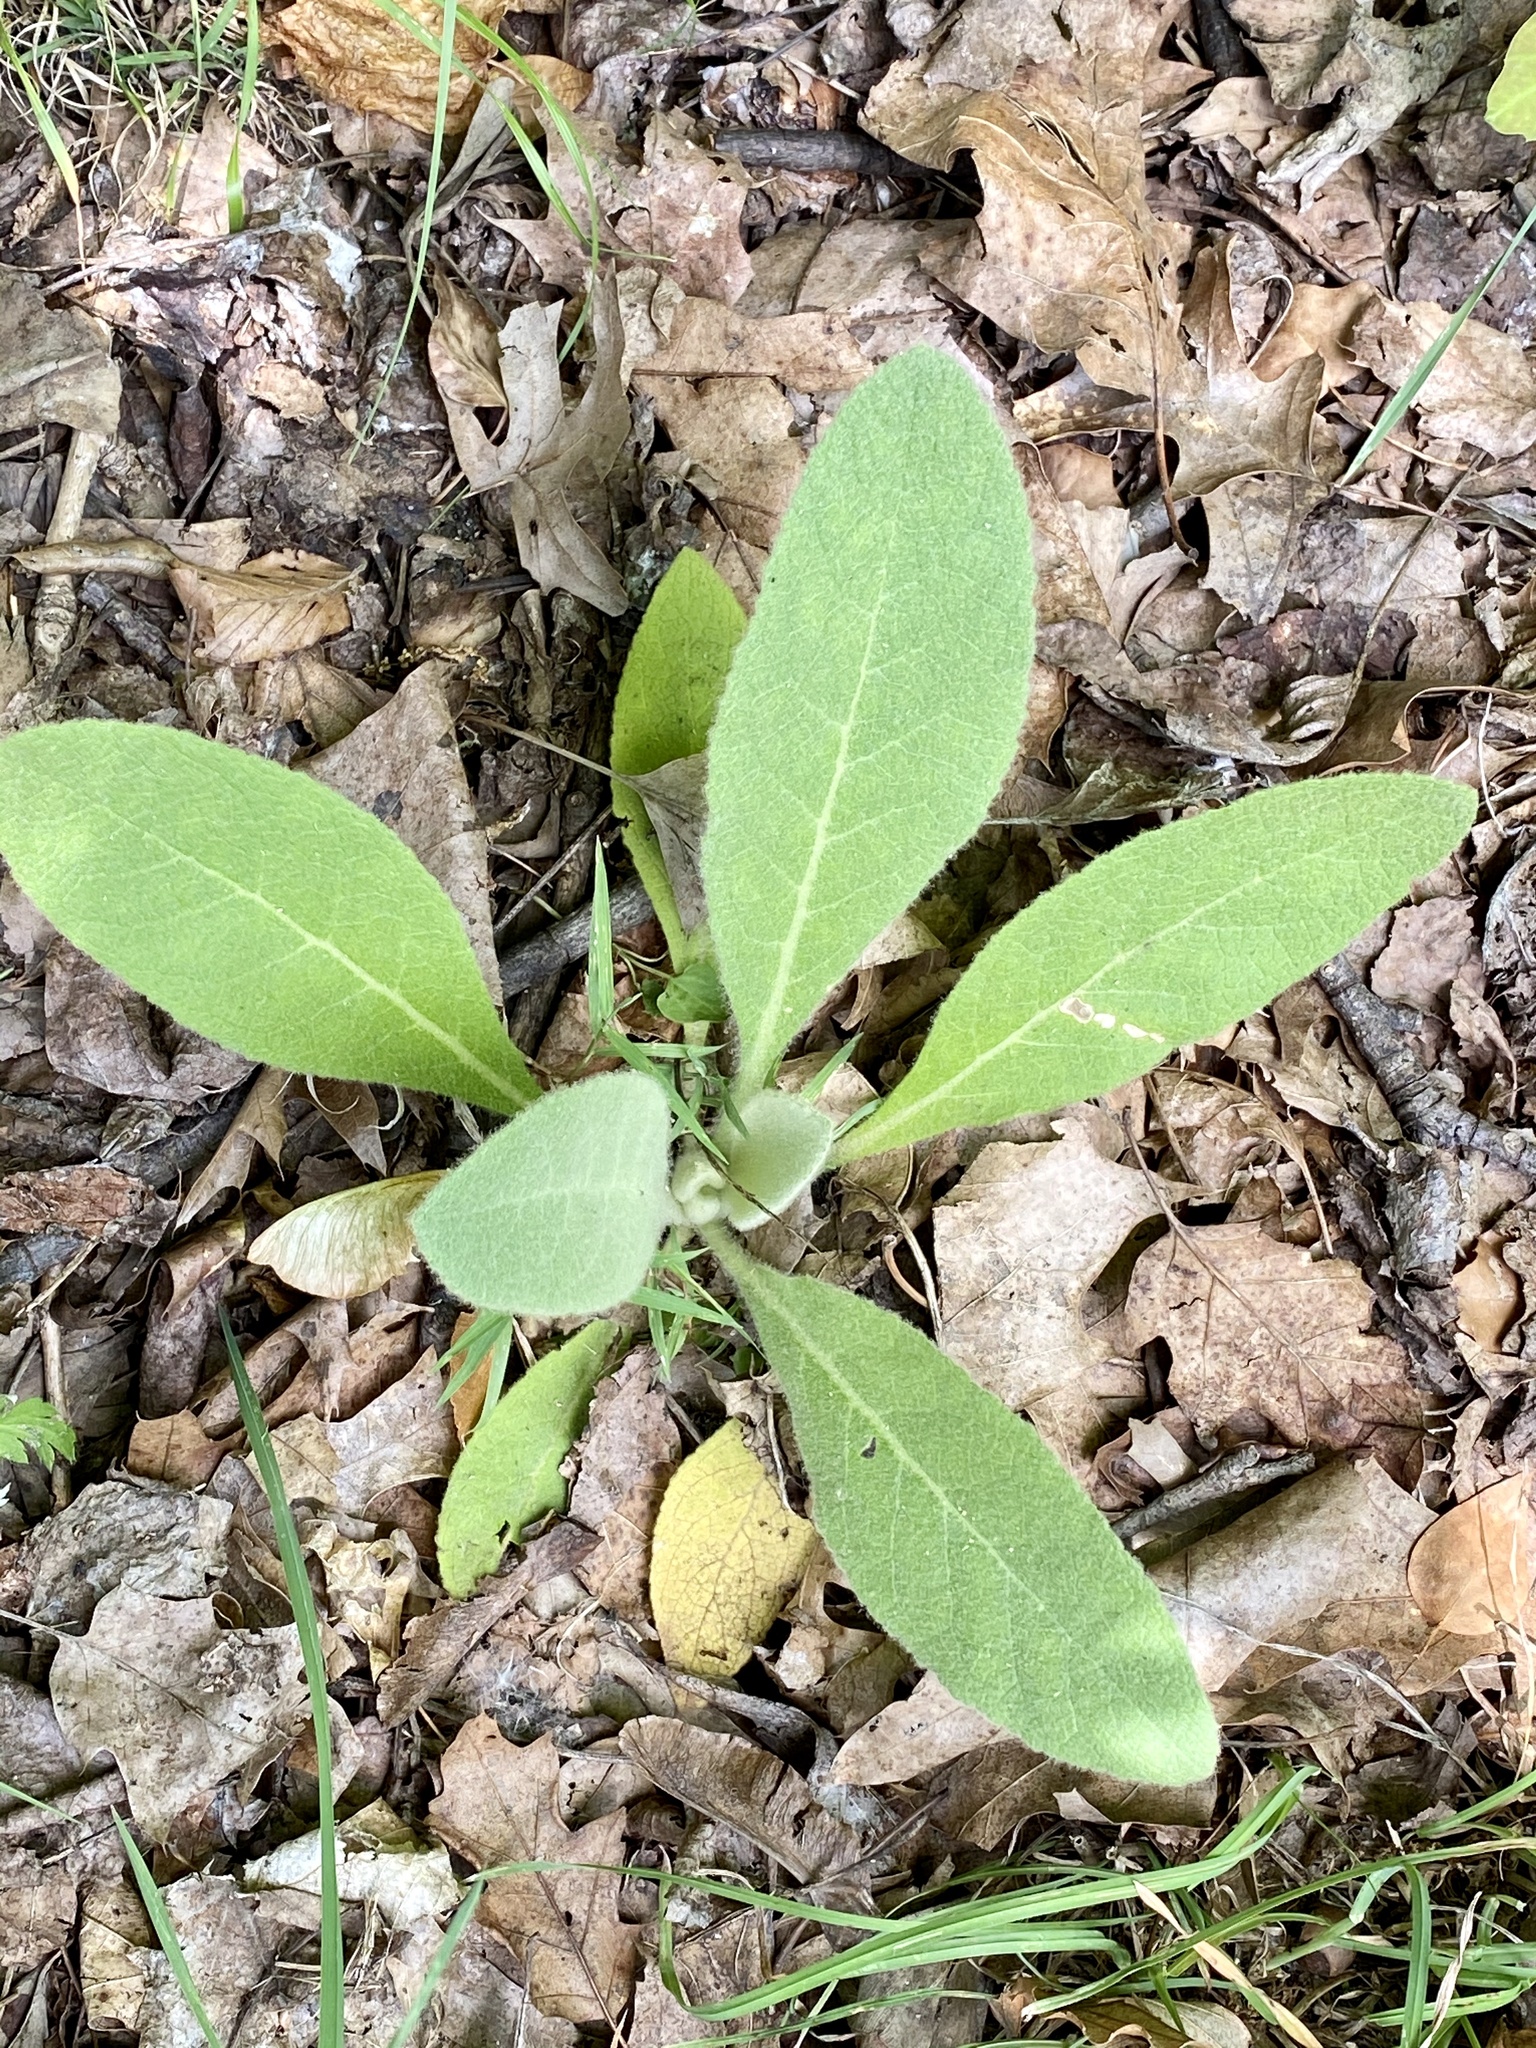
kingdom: Plantae
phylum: Tracheophyta
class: Magnoliopsida
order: Lamiales
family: Scrophulariaceae
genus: Verbascum
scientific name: Verbascum thapsus
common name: Common mullein
